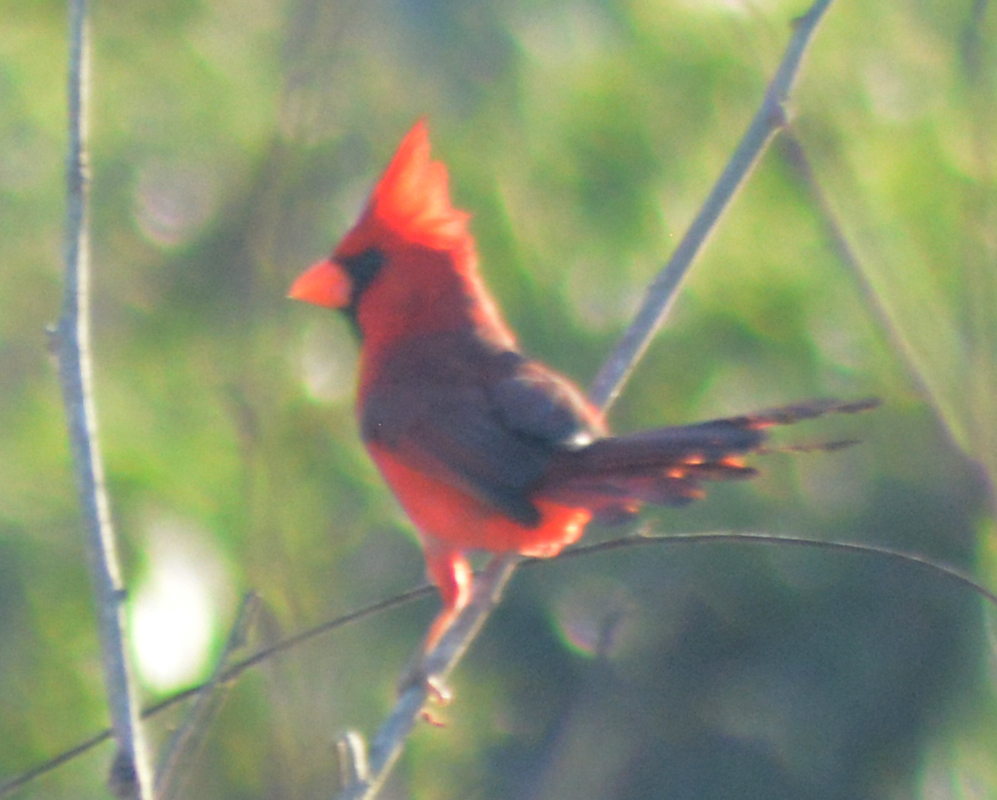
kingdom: Animalia
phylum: Chordata
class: Aves
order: Passeriformes
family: Cardinalidae
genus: Cardinalis
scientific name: Cardinalis cardinalis
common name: Northern cardinal
